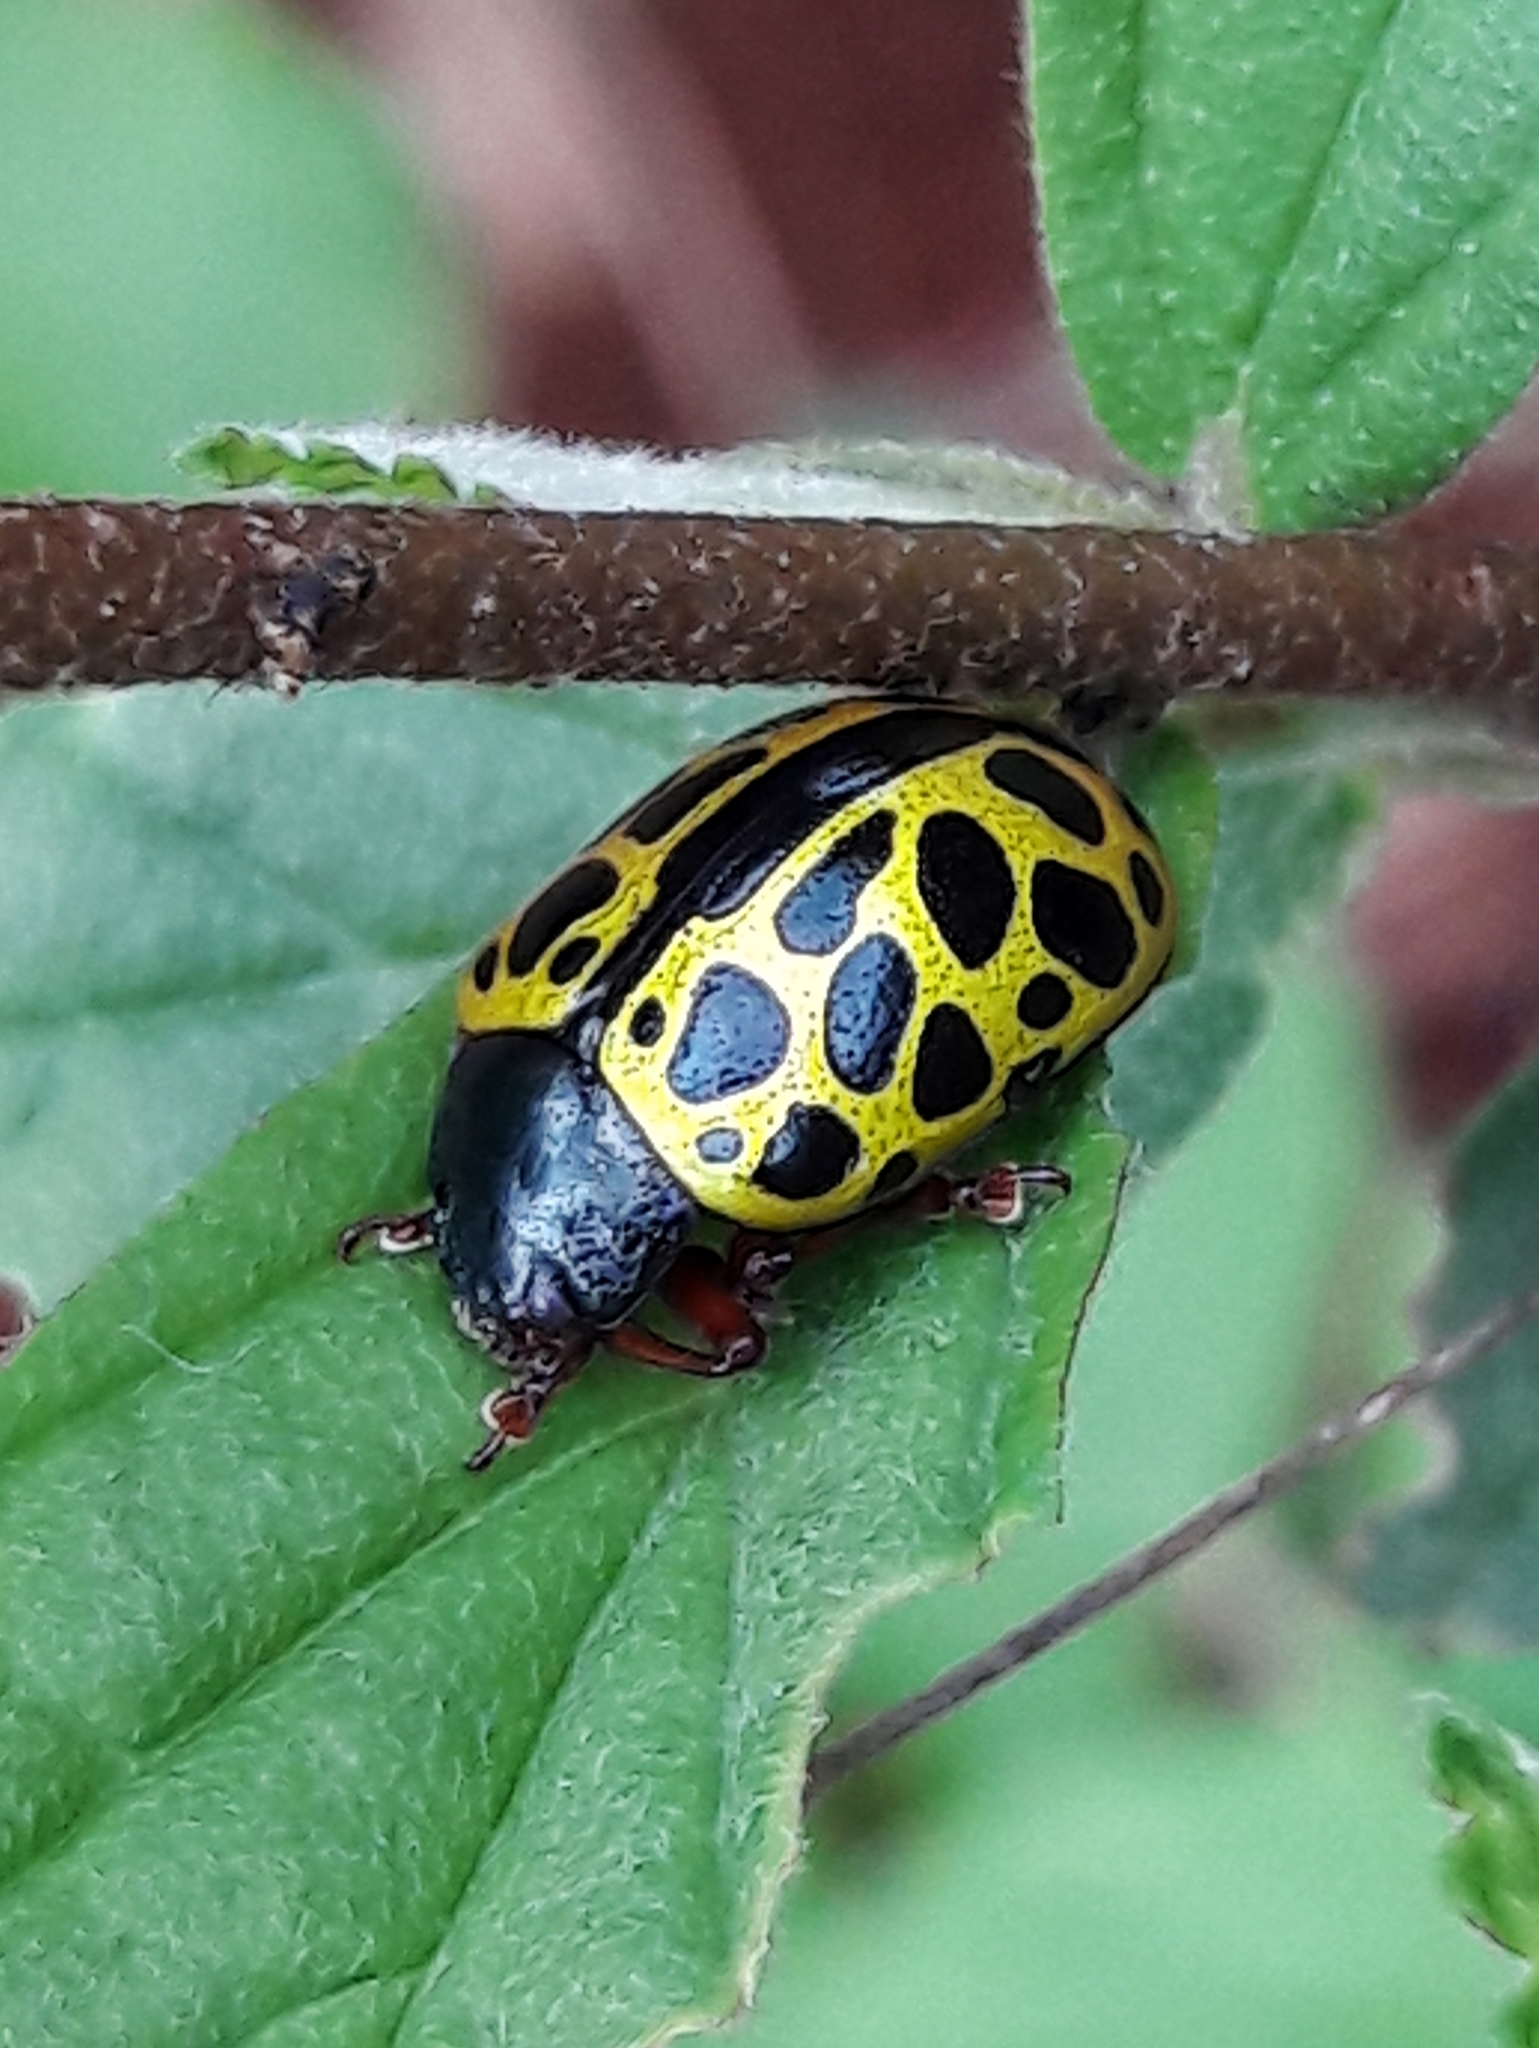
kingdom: Animalia
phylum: Arthropoda
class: Insecta
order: Coleoptera
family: Chrysomelidae
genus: Calligrapha
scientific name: Calligrapha polyspila
